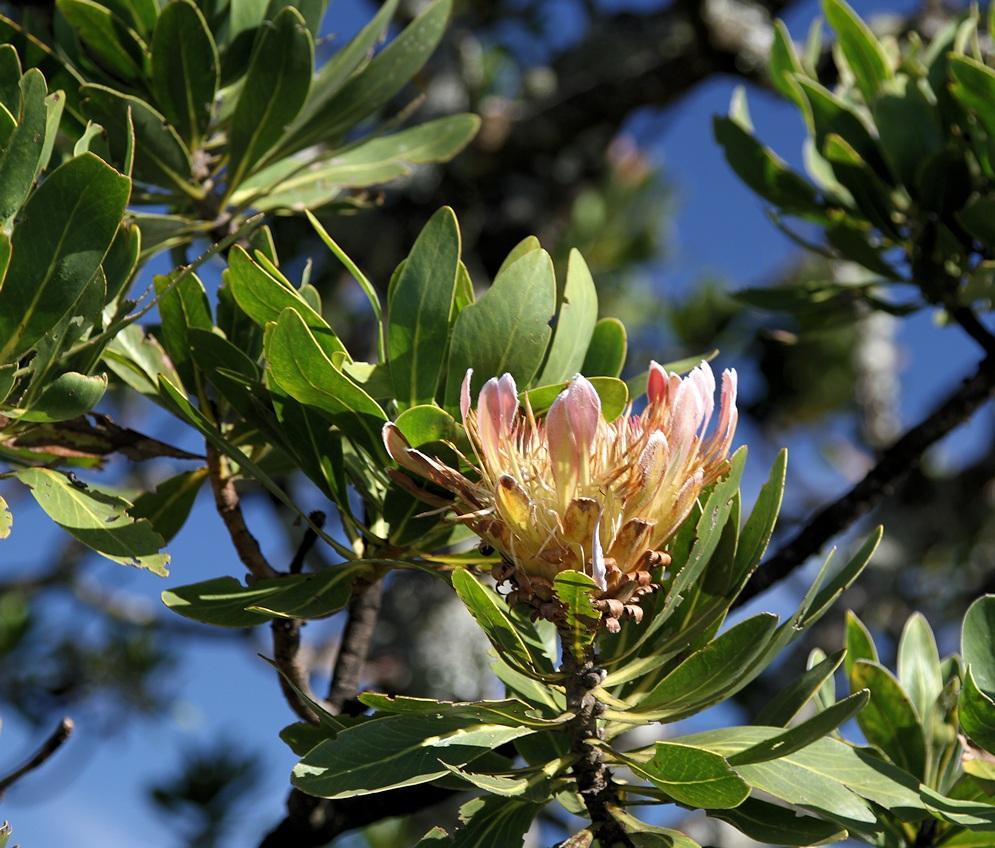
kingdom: Plantae
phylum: Tracheophyta
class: Magnoliopsida
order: Proteales
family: Proteaceae
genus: Protea
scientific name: Protea roupelliae
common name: Silver sugarbush
